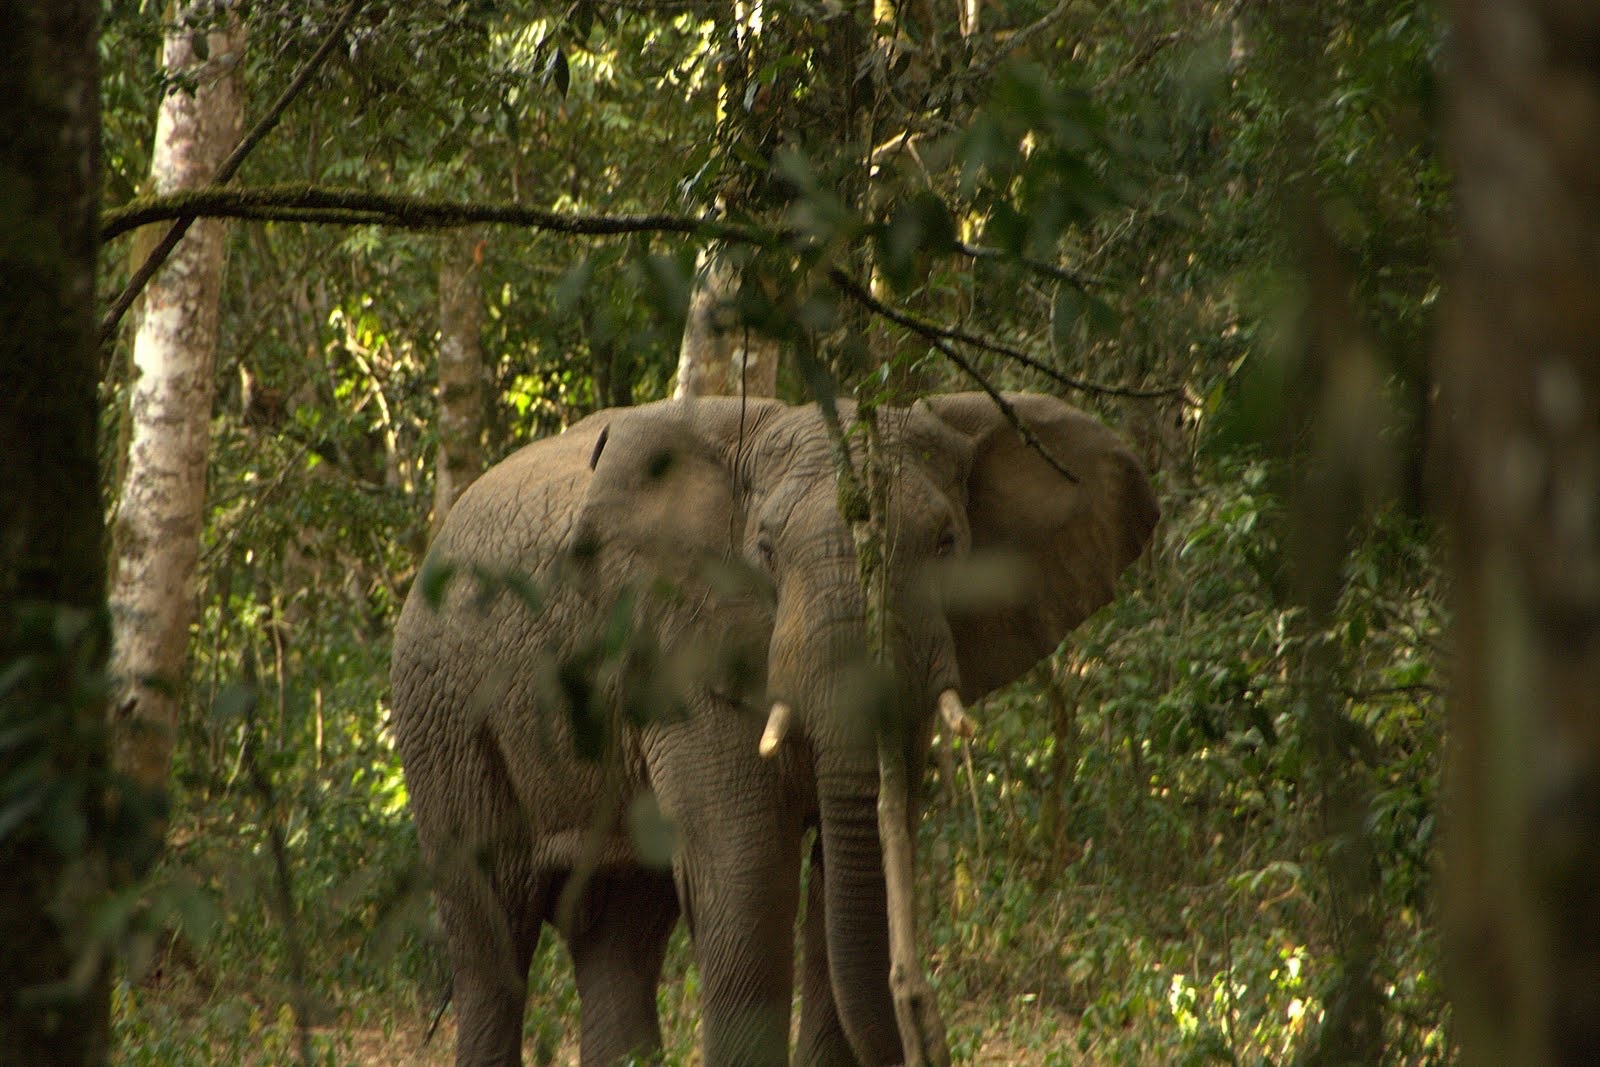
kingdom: Animalia
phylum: Chordata
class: Mammalia
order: Proboscidea
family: Elephantidae
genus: Loxodonta
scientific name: Loxodonta africana
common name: African elephant
